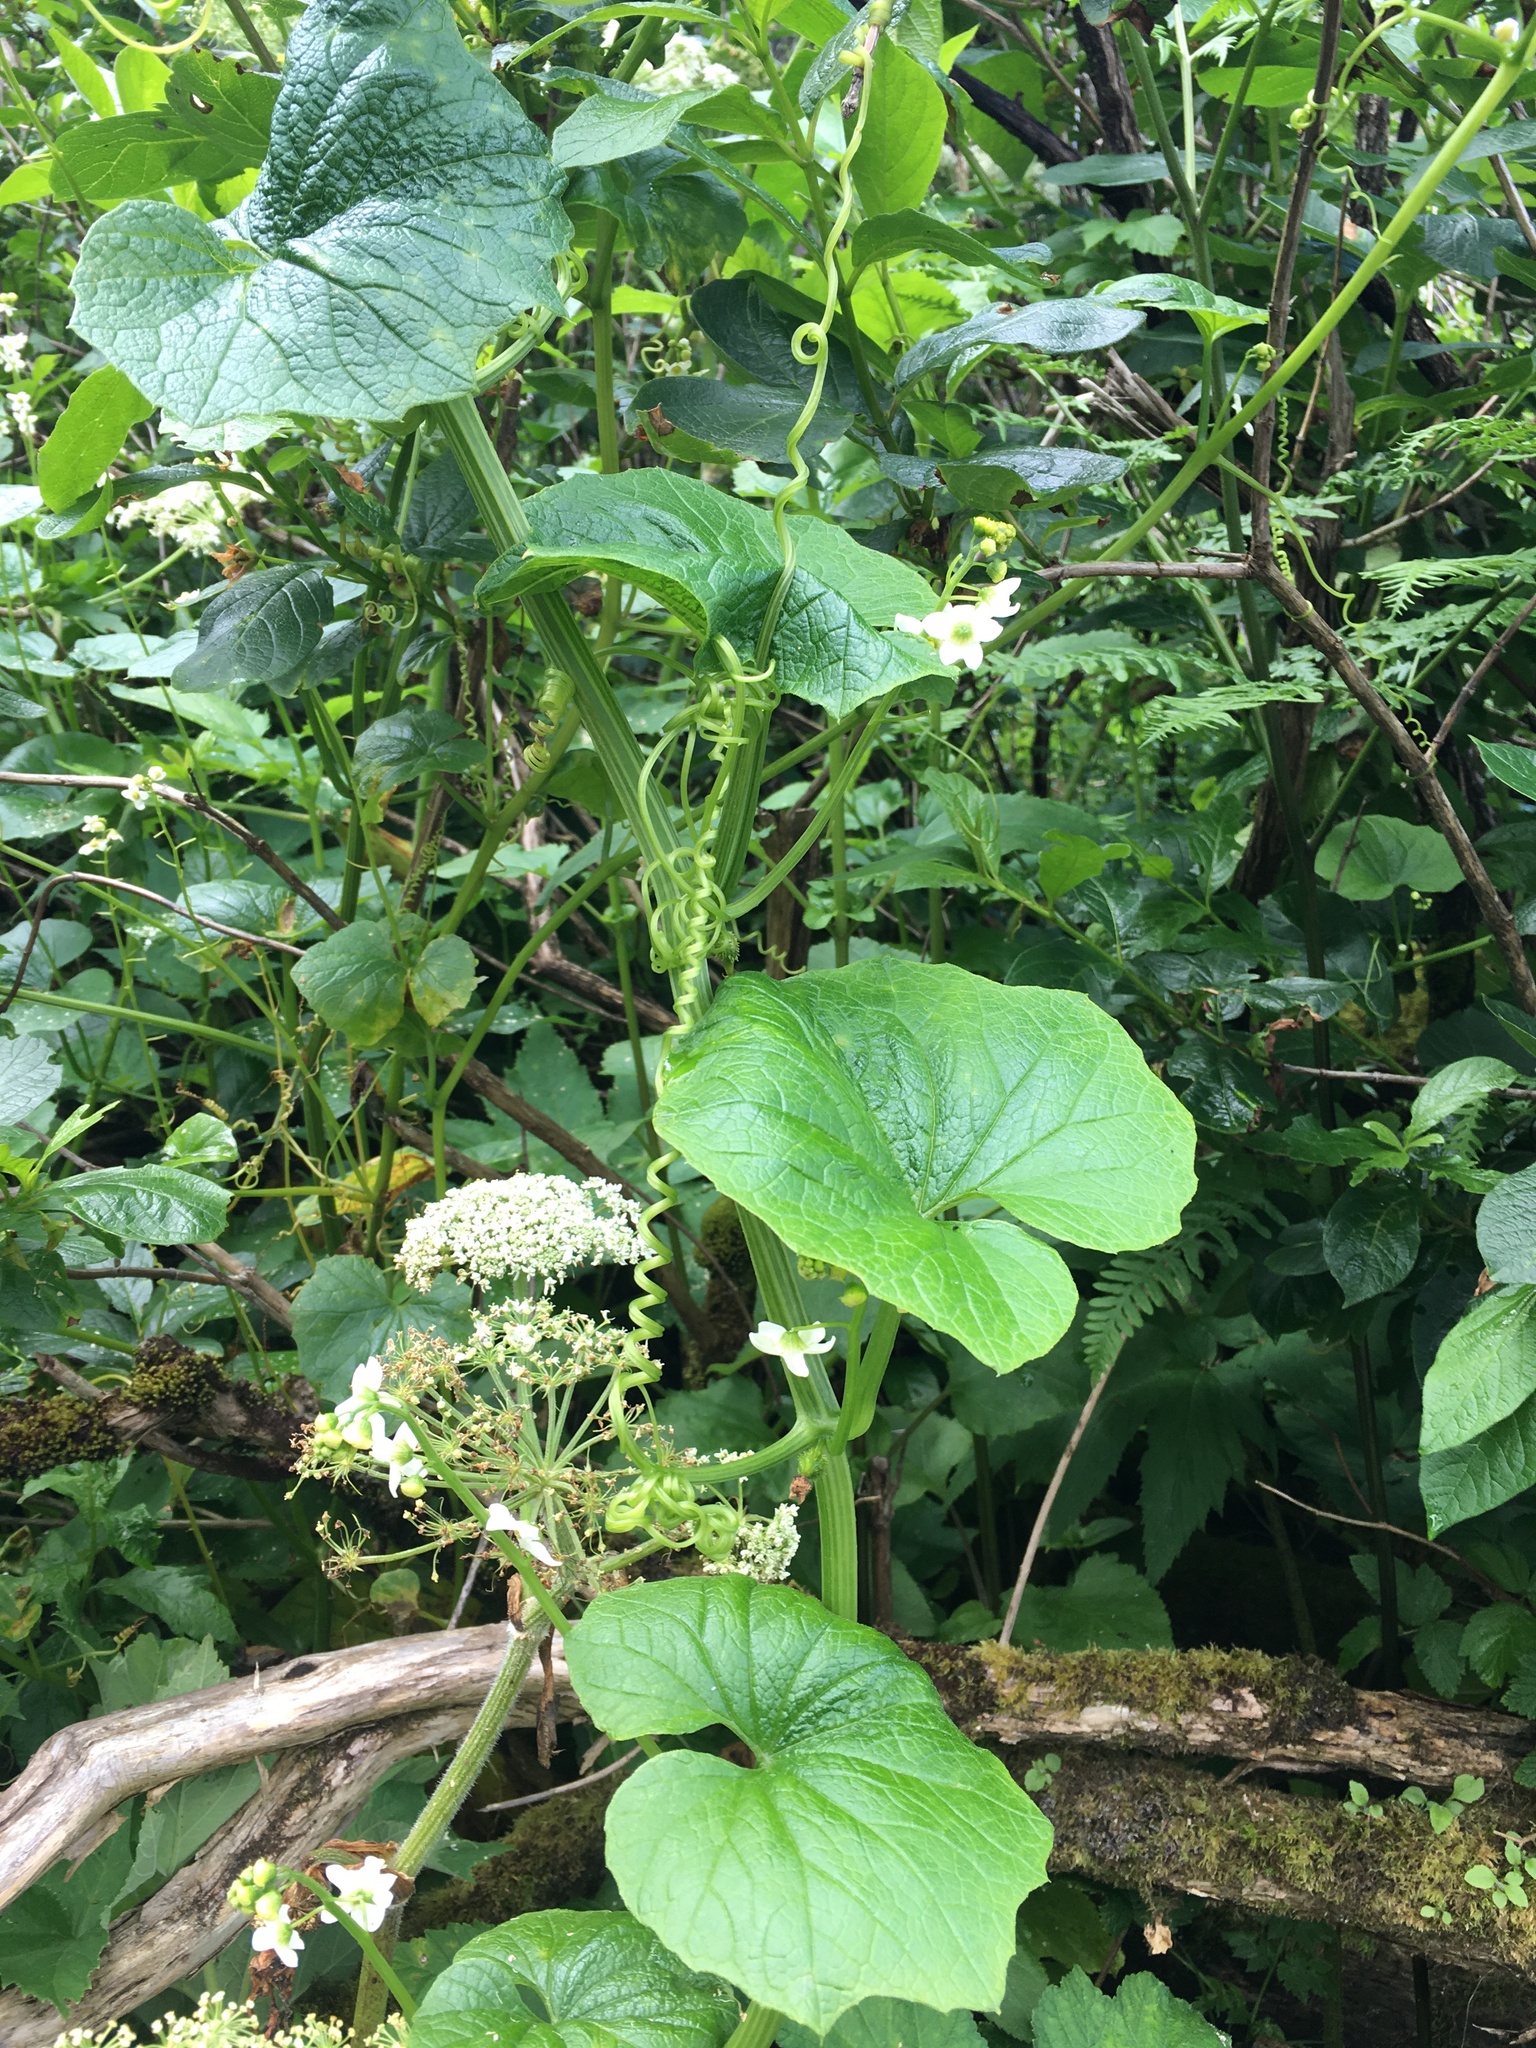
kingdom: Plantae
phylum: Tracheophyta
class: Magnoliopsida
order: Cucurbitales
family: Cucurbitaceae
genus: Marah
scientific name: Marah oregana
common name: Coastal manroot
